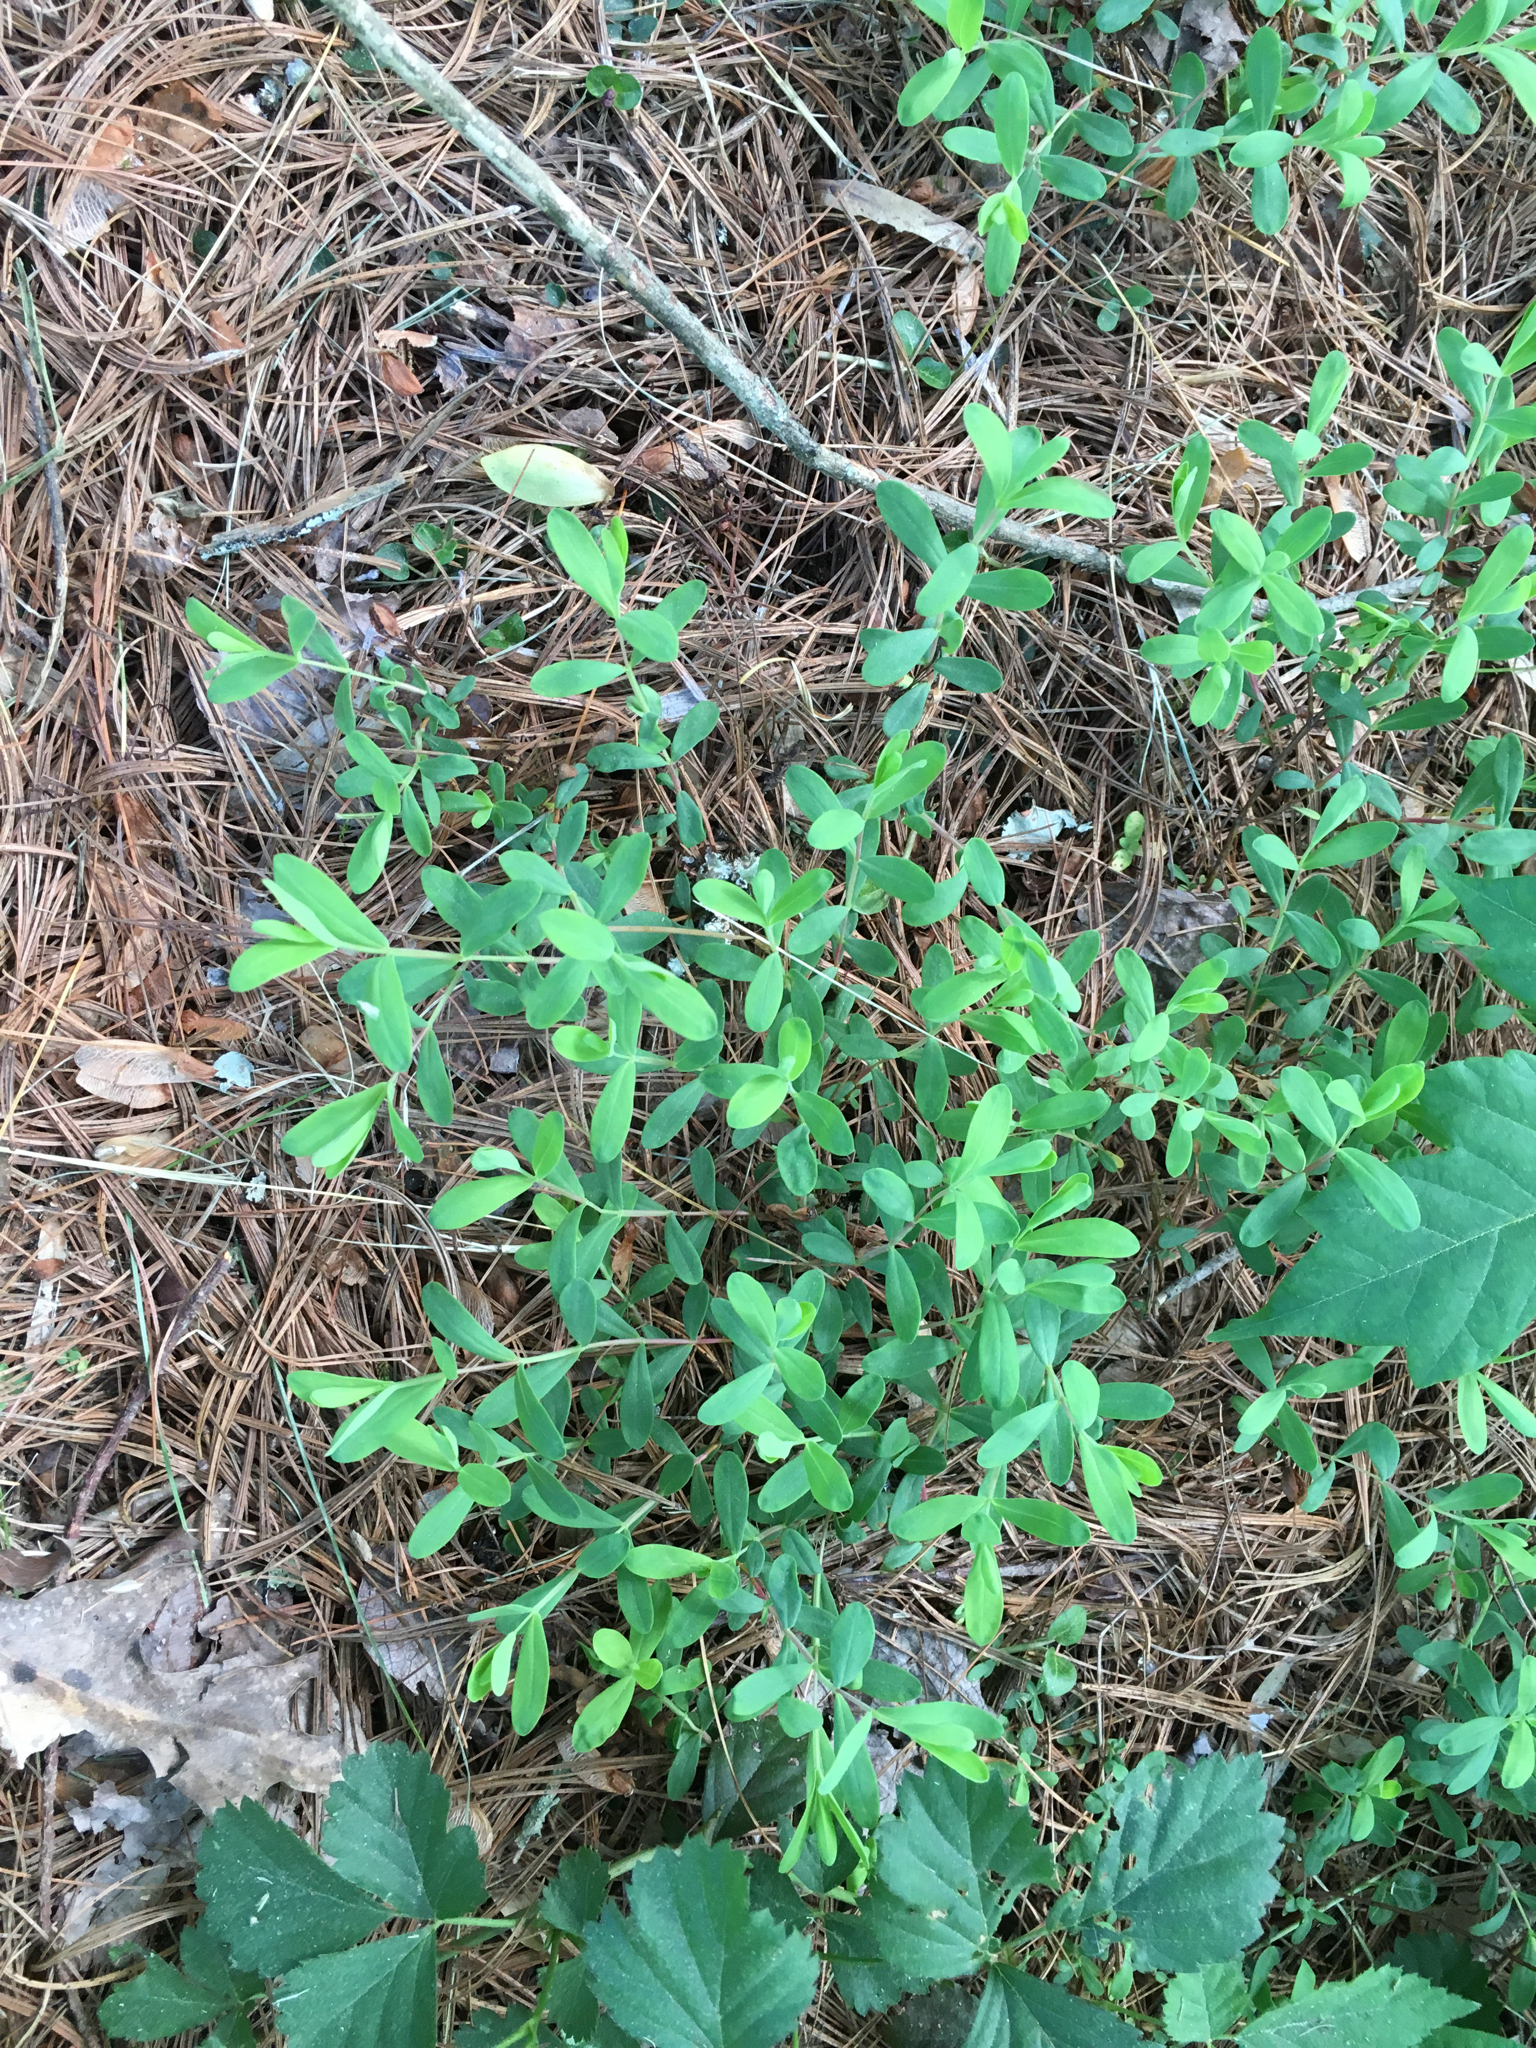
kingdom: Plantae
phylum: Tracheophyta
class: Magnoliopsida
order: Malpighiales
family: Hypericaceae
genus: Hypericum
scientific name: Hypericum hypericoides
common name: St. andrew's cross
